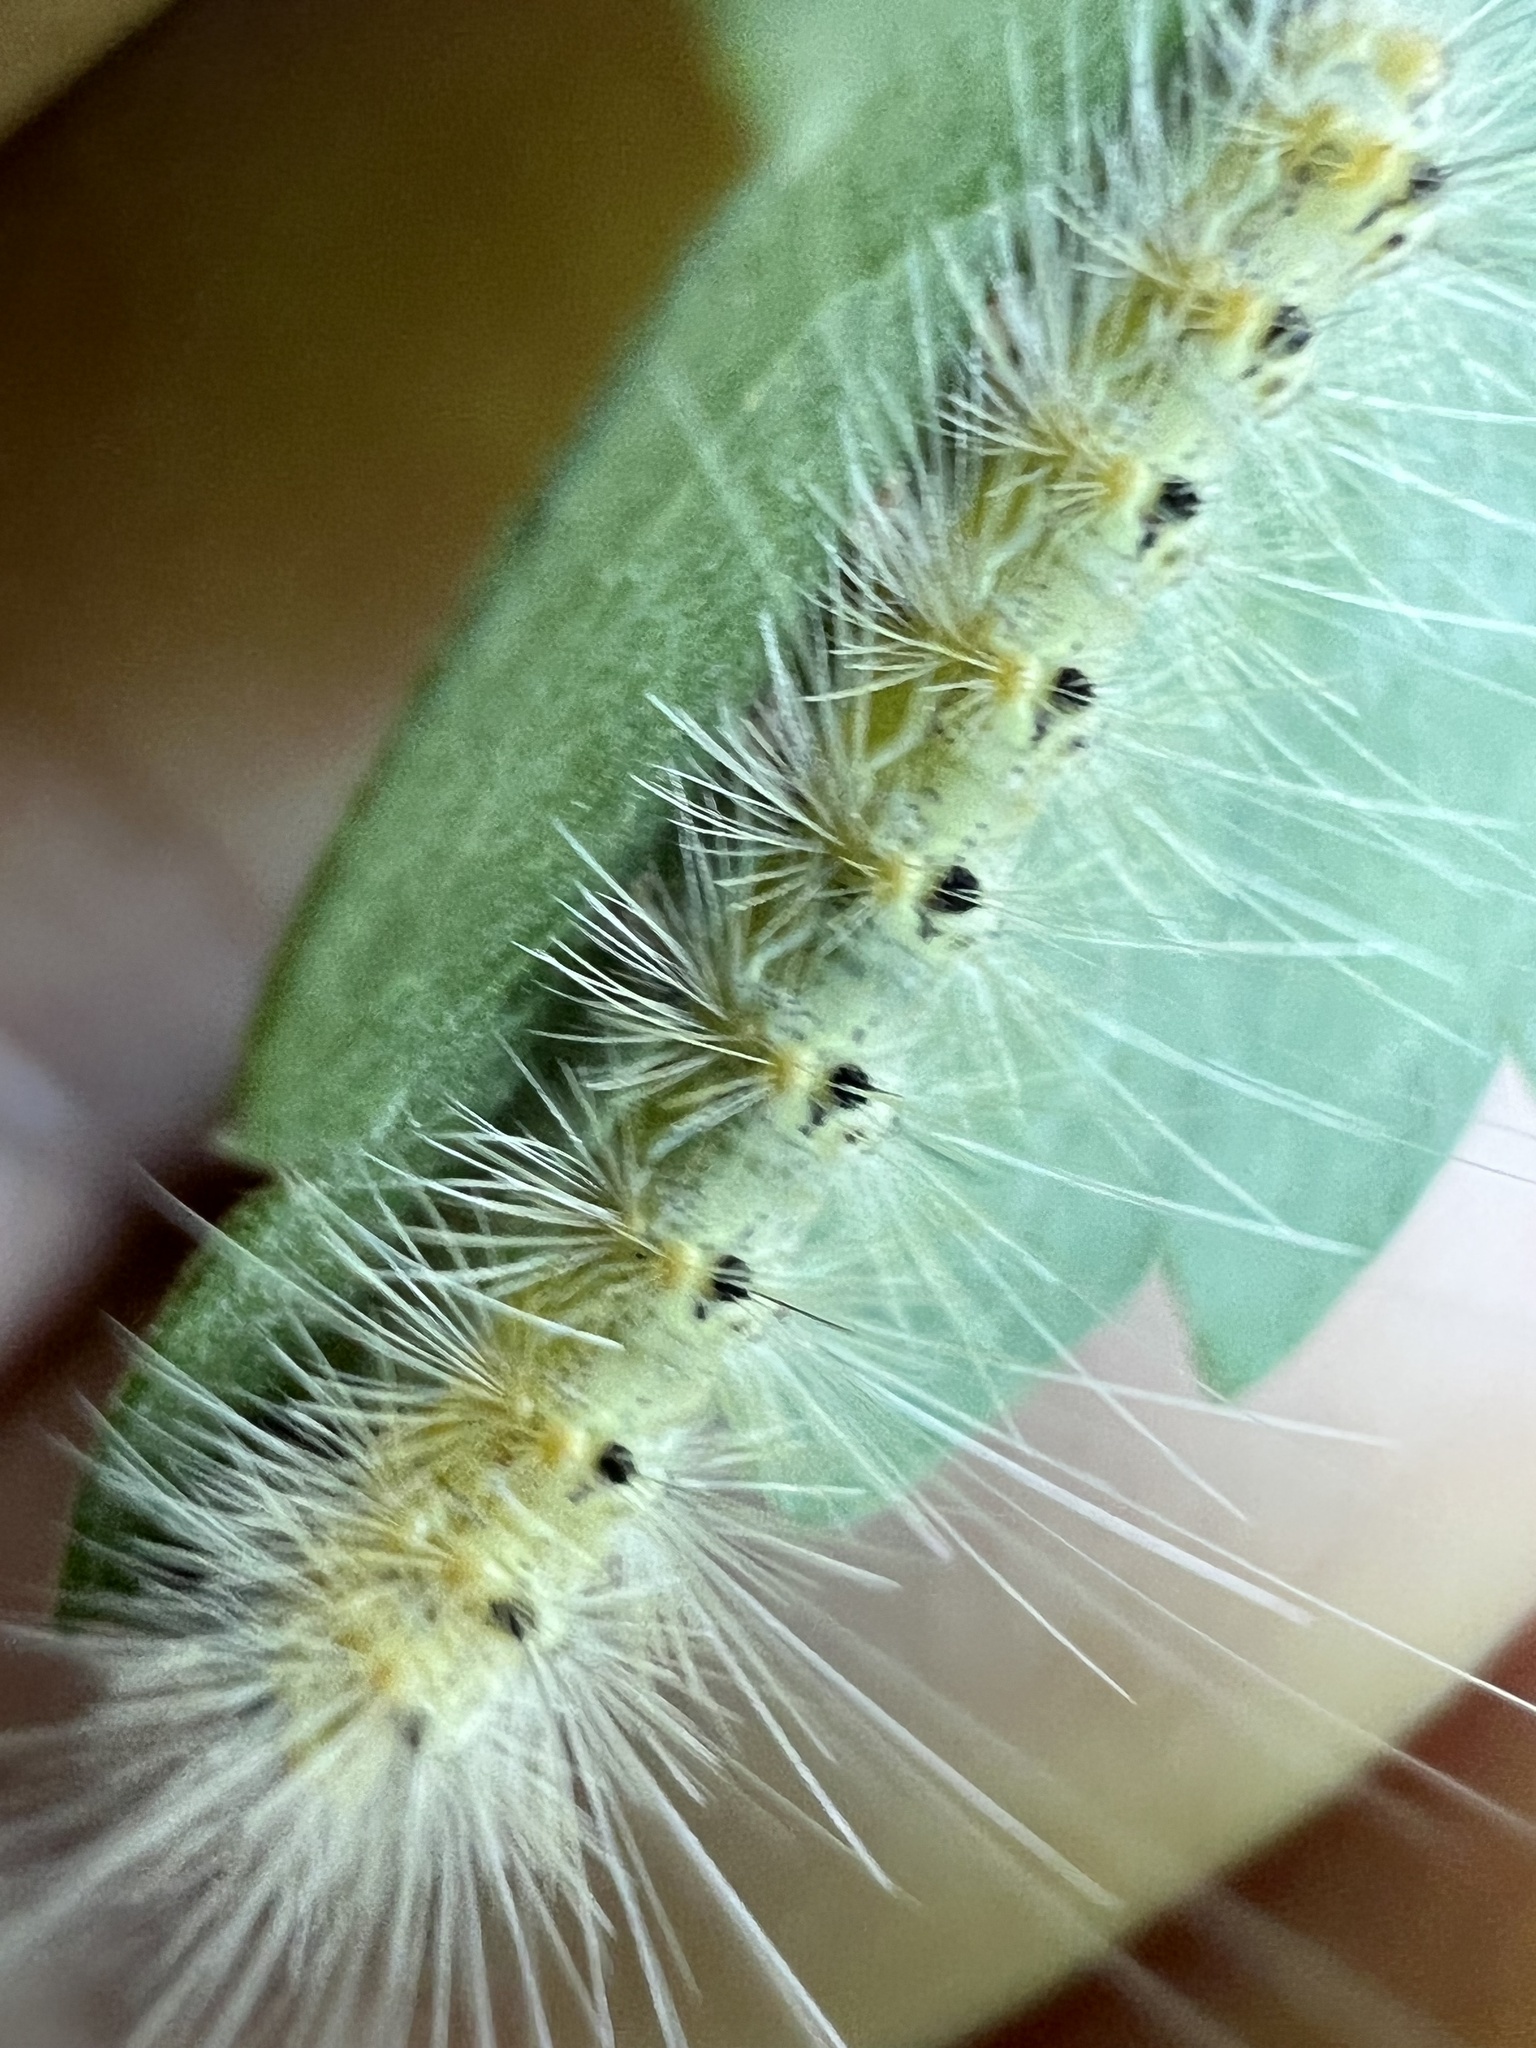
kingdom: Animalia
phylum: Arthropoda
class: Insecta
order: Lepidoptera
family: Erebidae
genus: Hyphantria
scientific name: Hyphantria cunea
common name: American white moth
